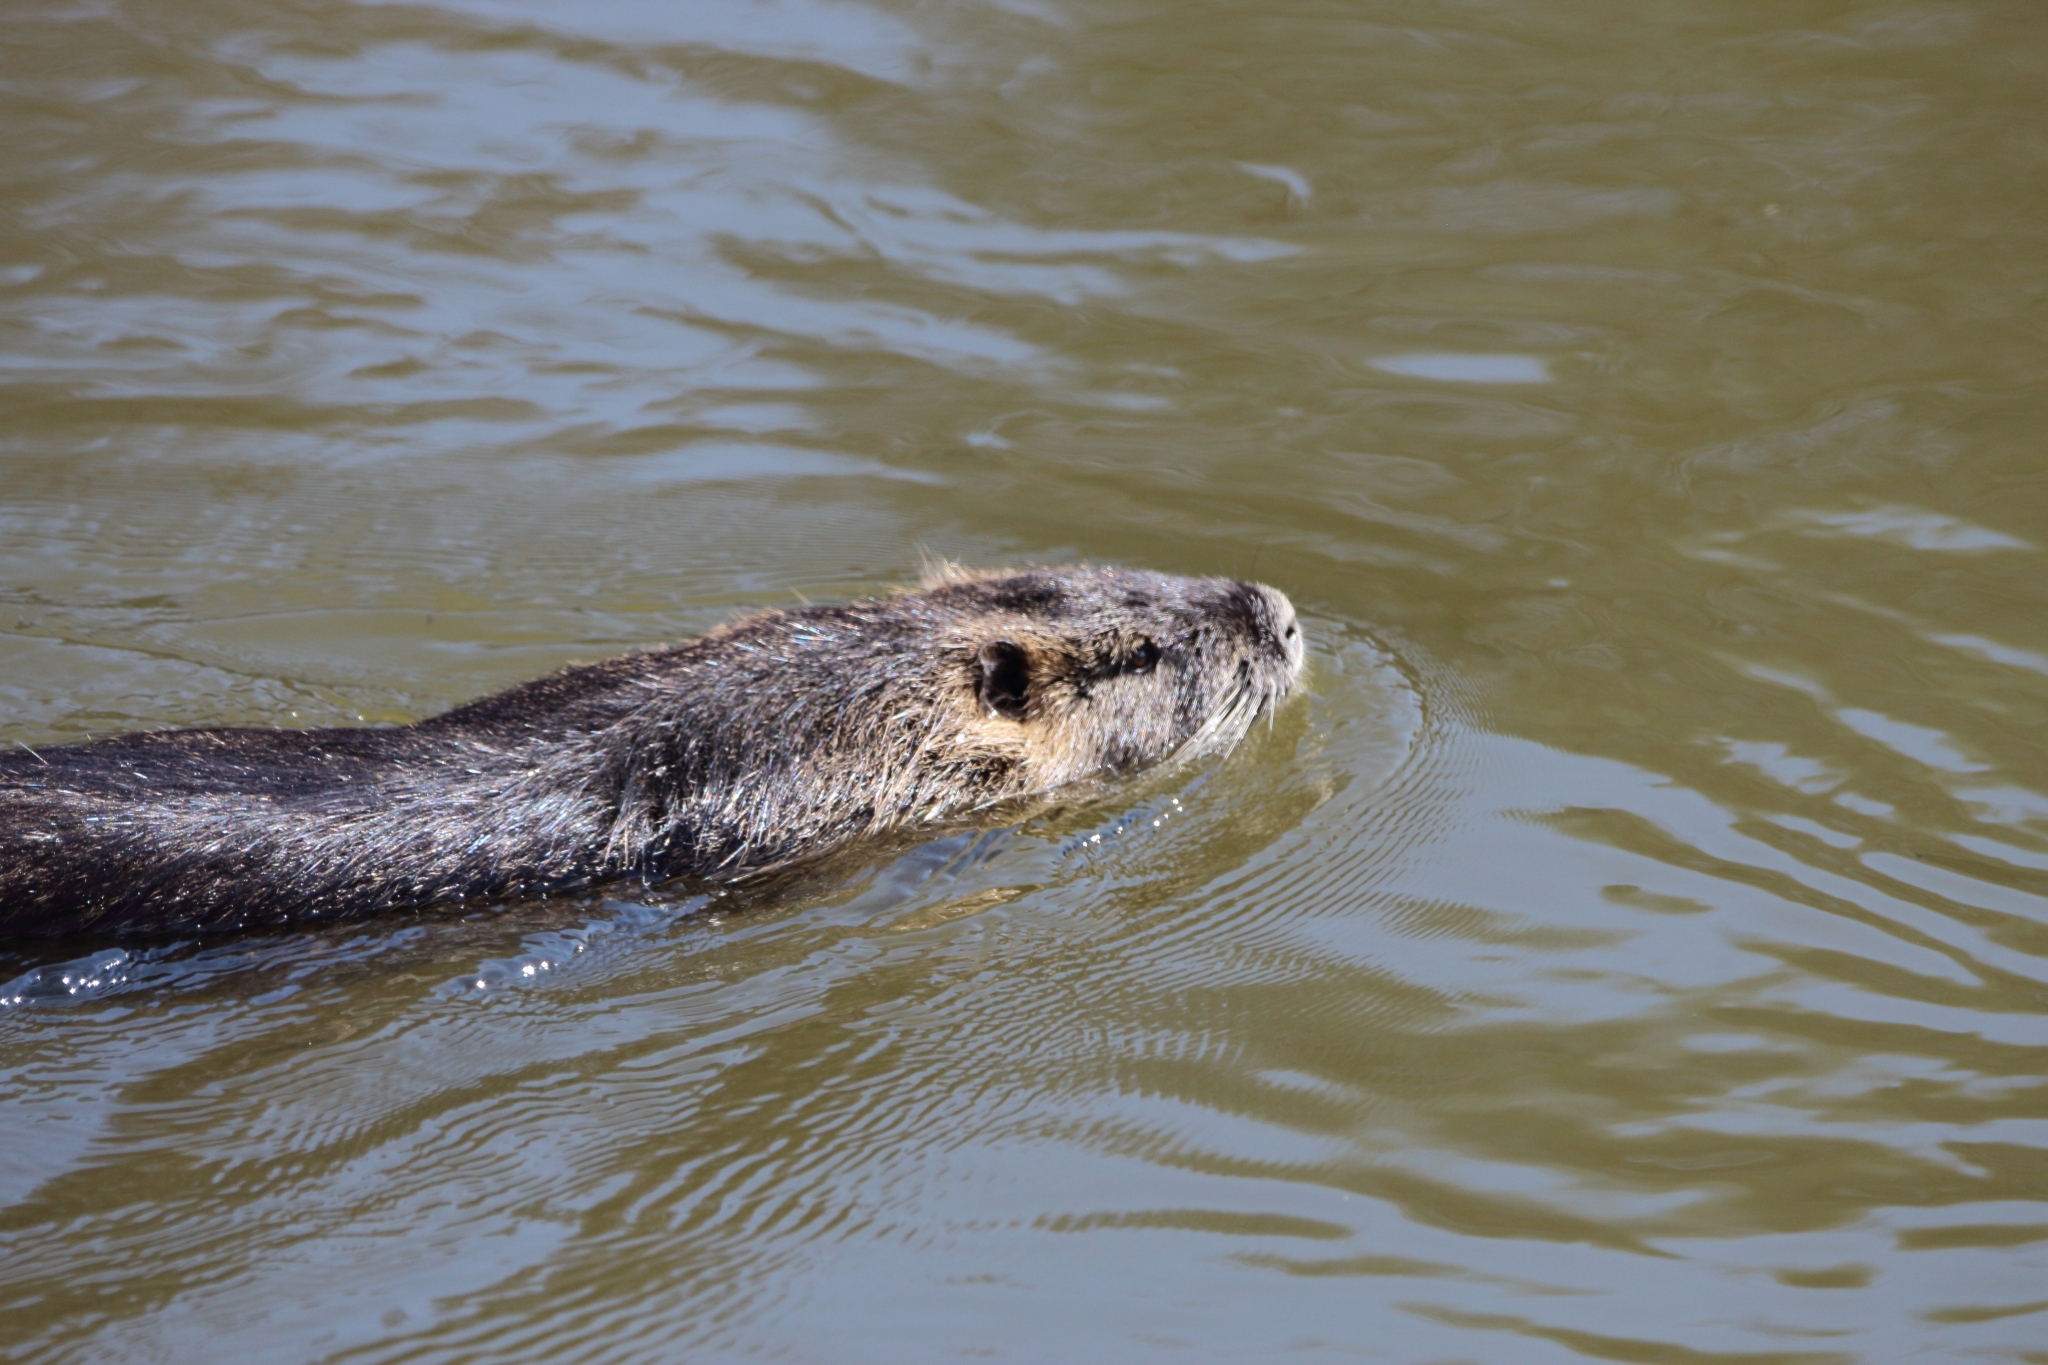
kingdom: Animalia
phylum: Chordata
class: Mammalia
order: Rodentia
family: Myocastoridae
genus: Myocastor
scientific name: Myocastor coypus
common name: Coypu
